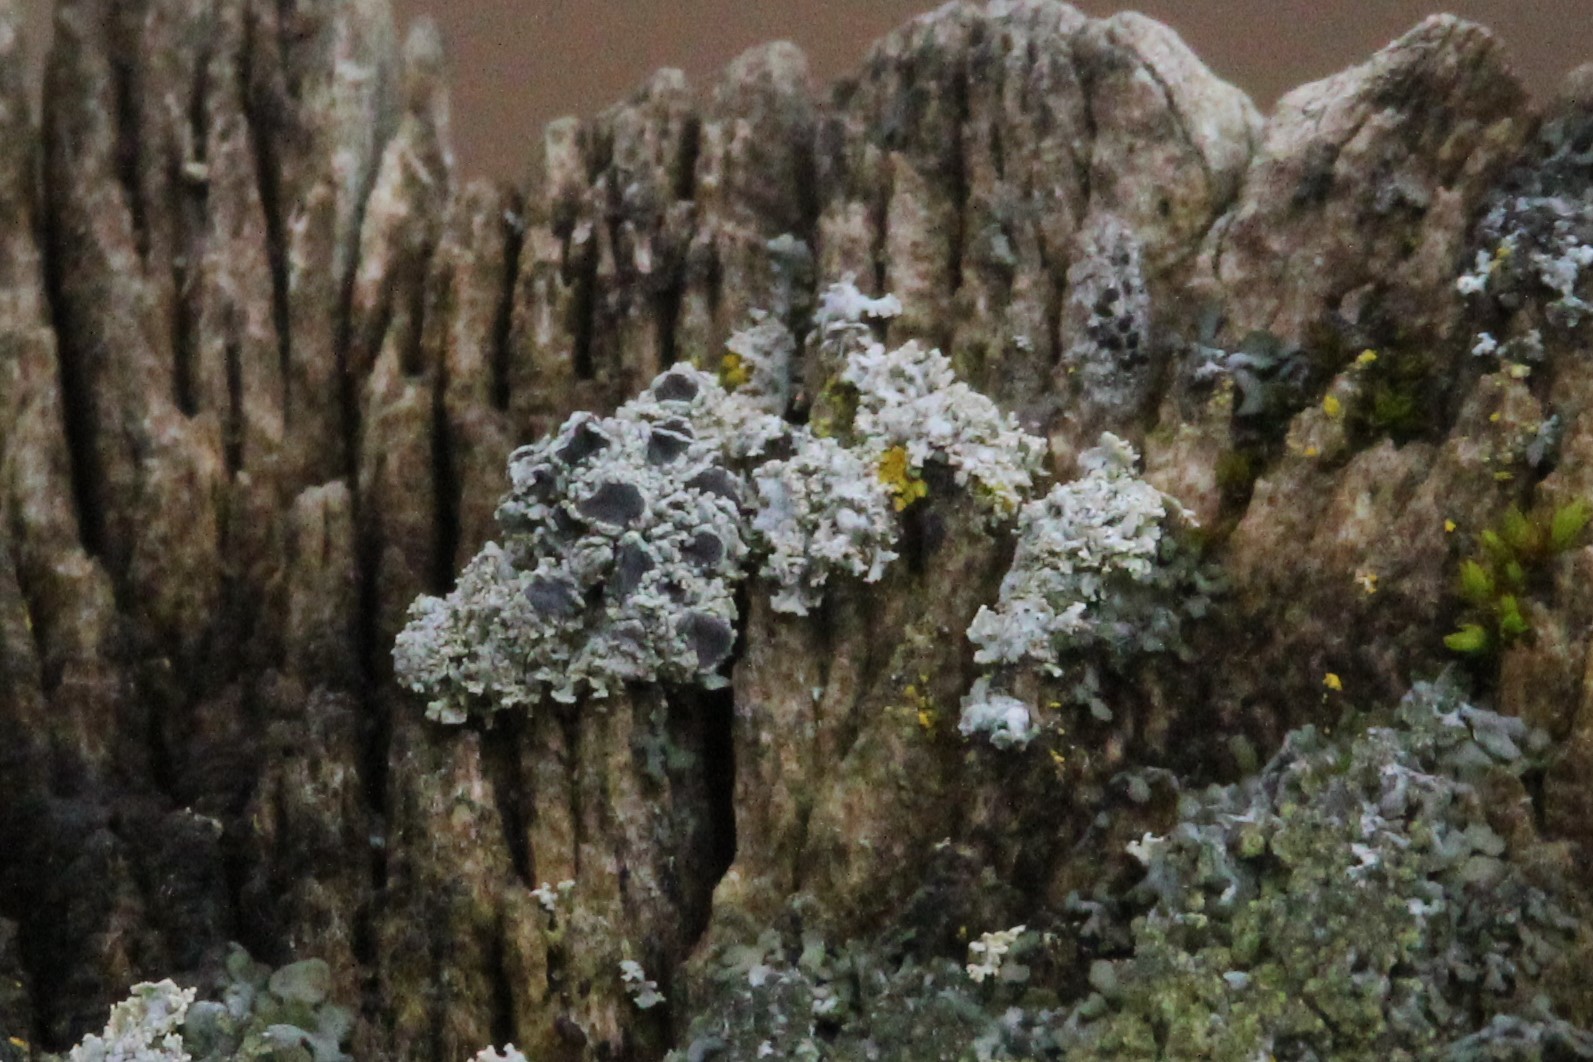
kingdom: Fungi
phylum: Ascomycota
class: Lecanoromycetes
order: Caliciales
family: Physciaceae
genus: Physcia
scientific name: Physcia millegrana
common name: Rosette lichen
